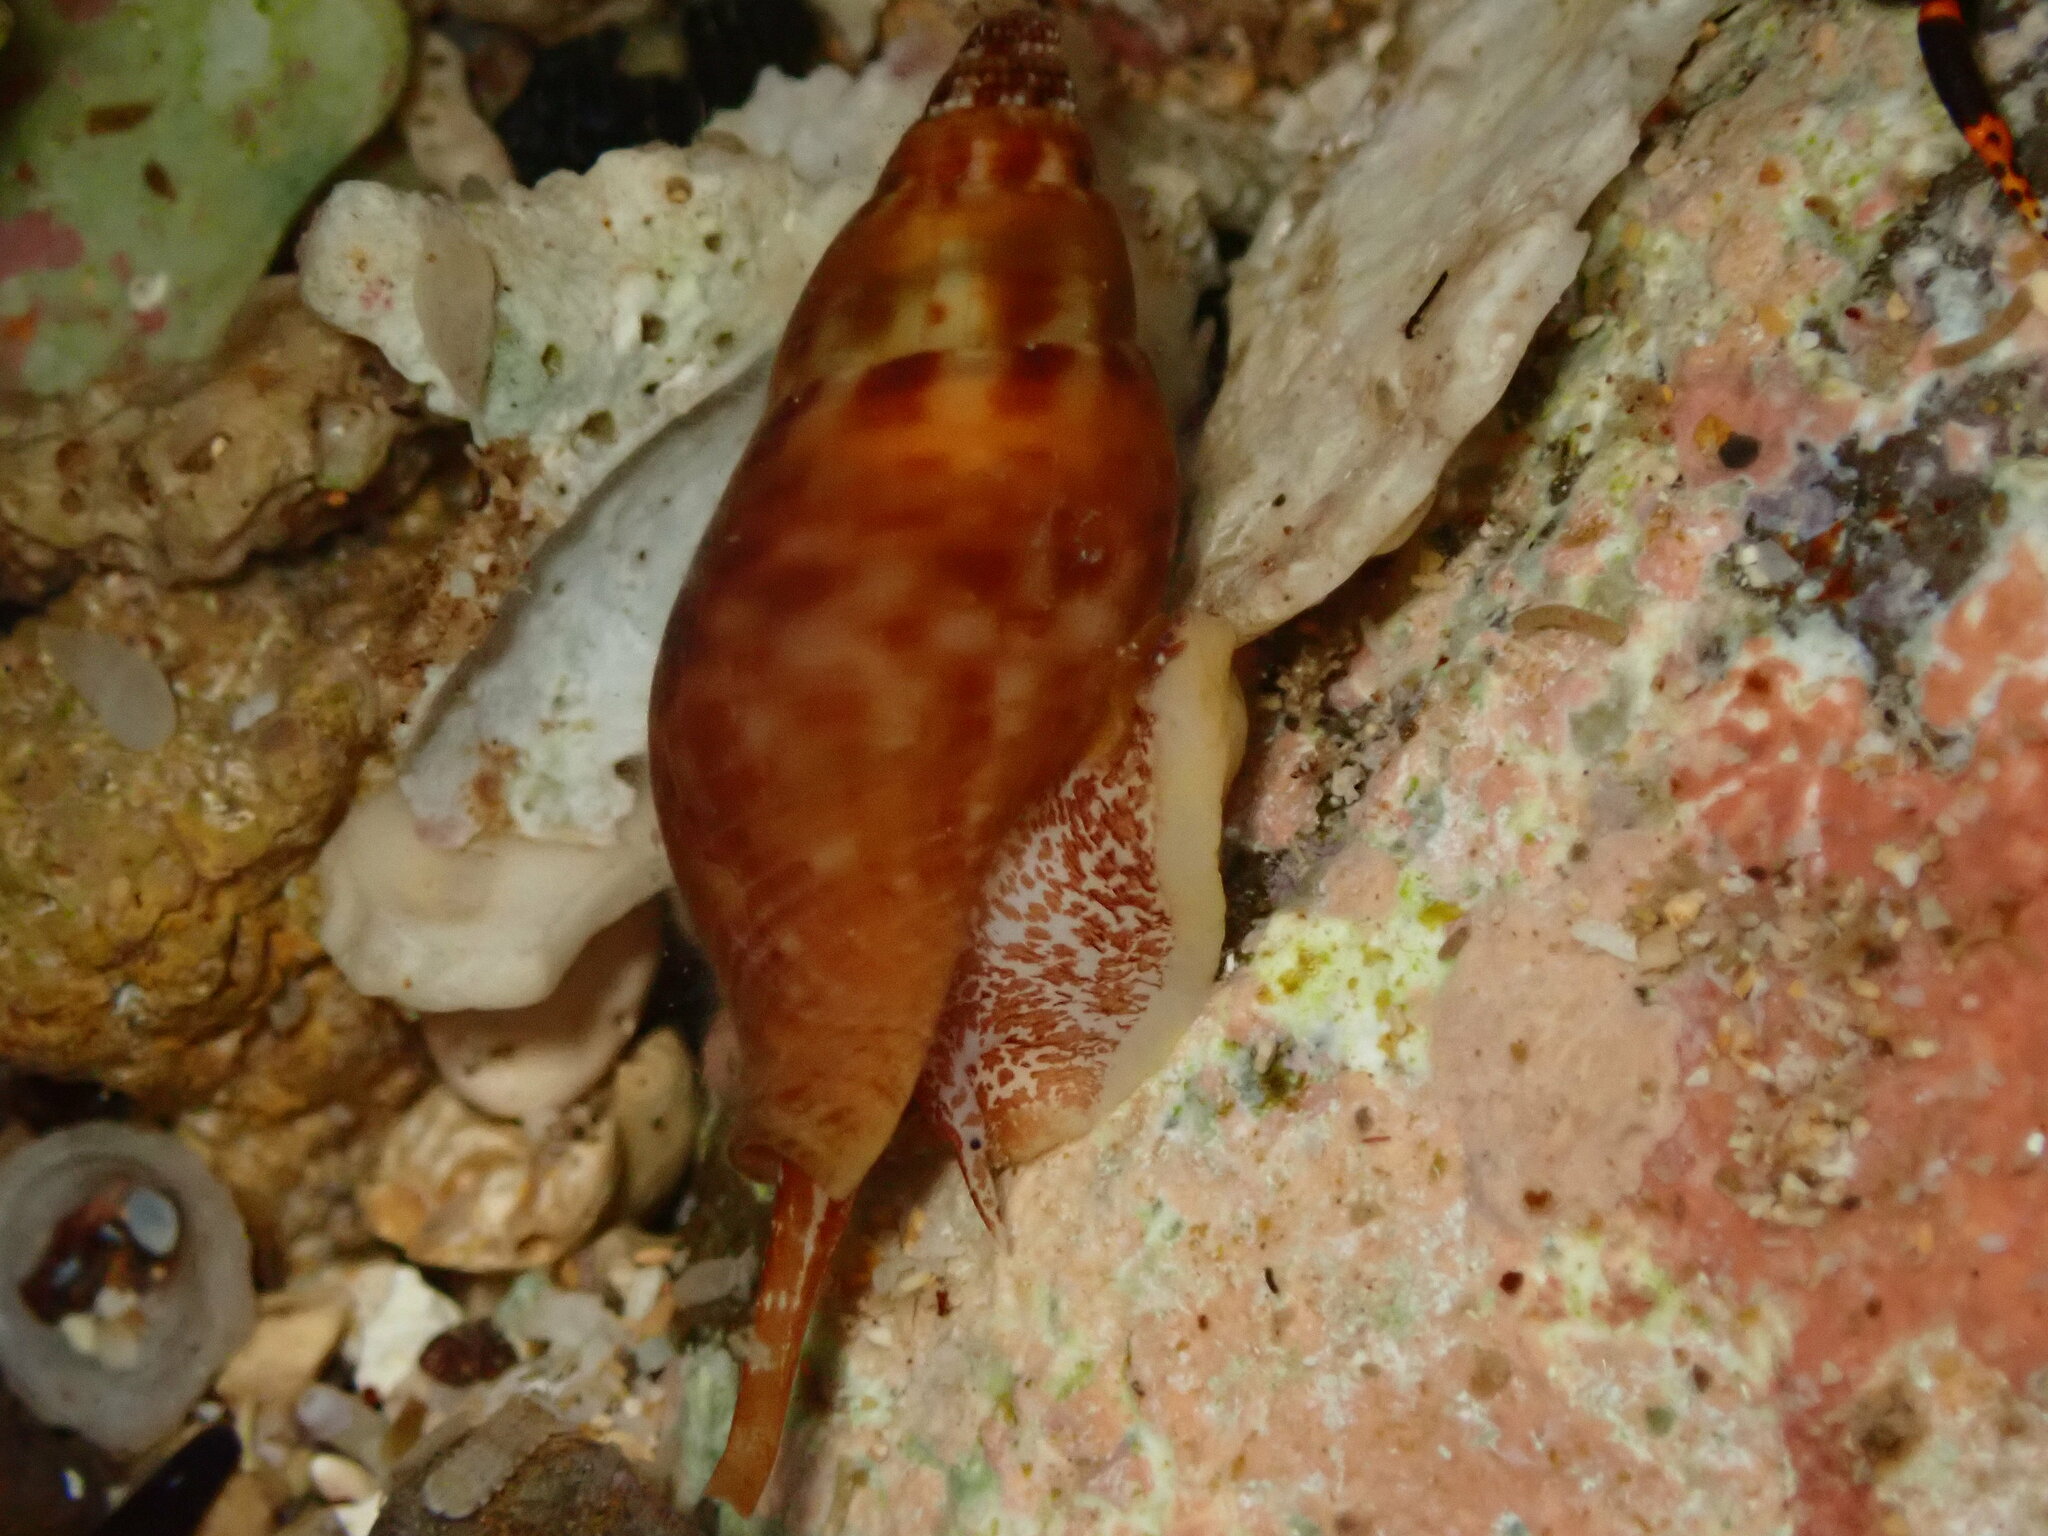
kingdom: Animalia
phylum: Mollusca
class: Gastropoda
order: Neogastropoda
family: Pisaniidae
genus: Pisania
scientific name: Pisania ignea
